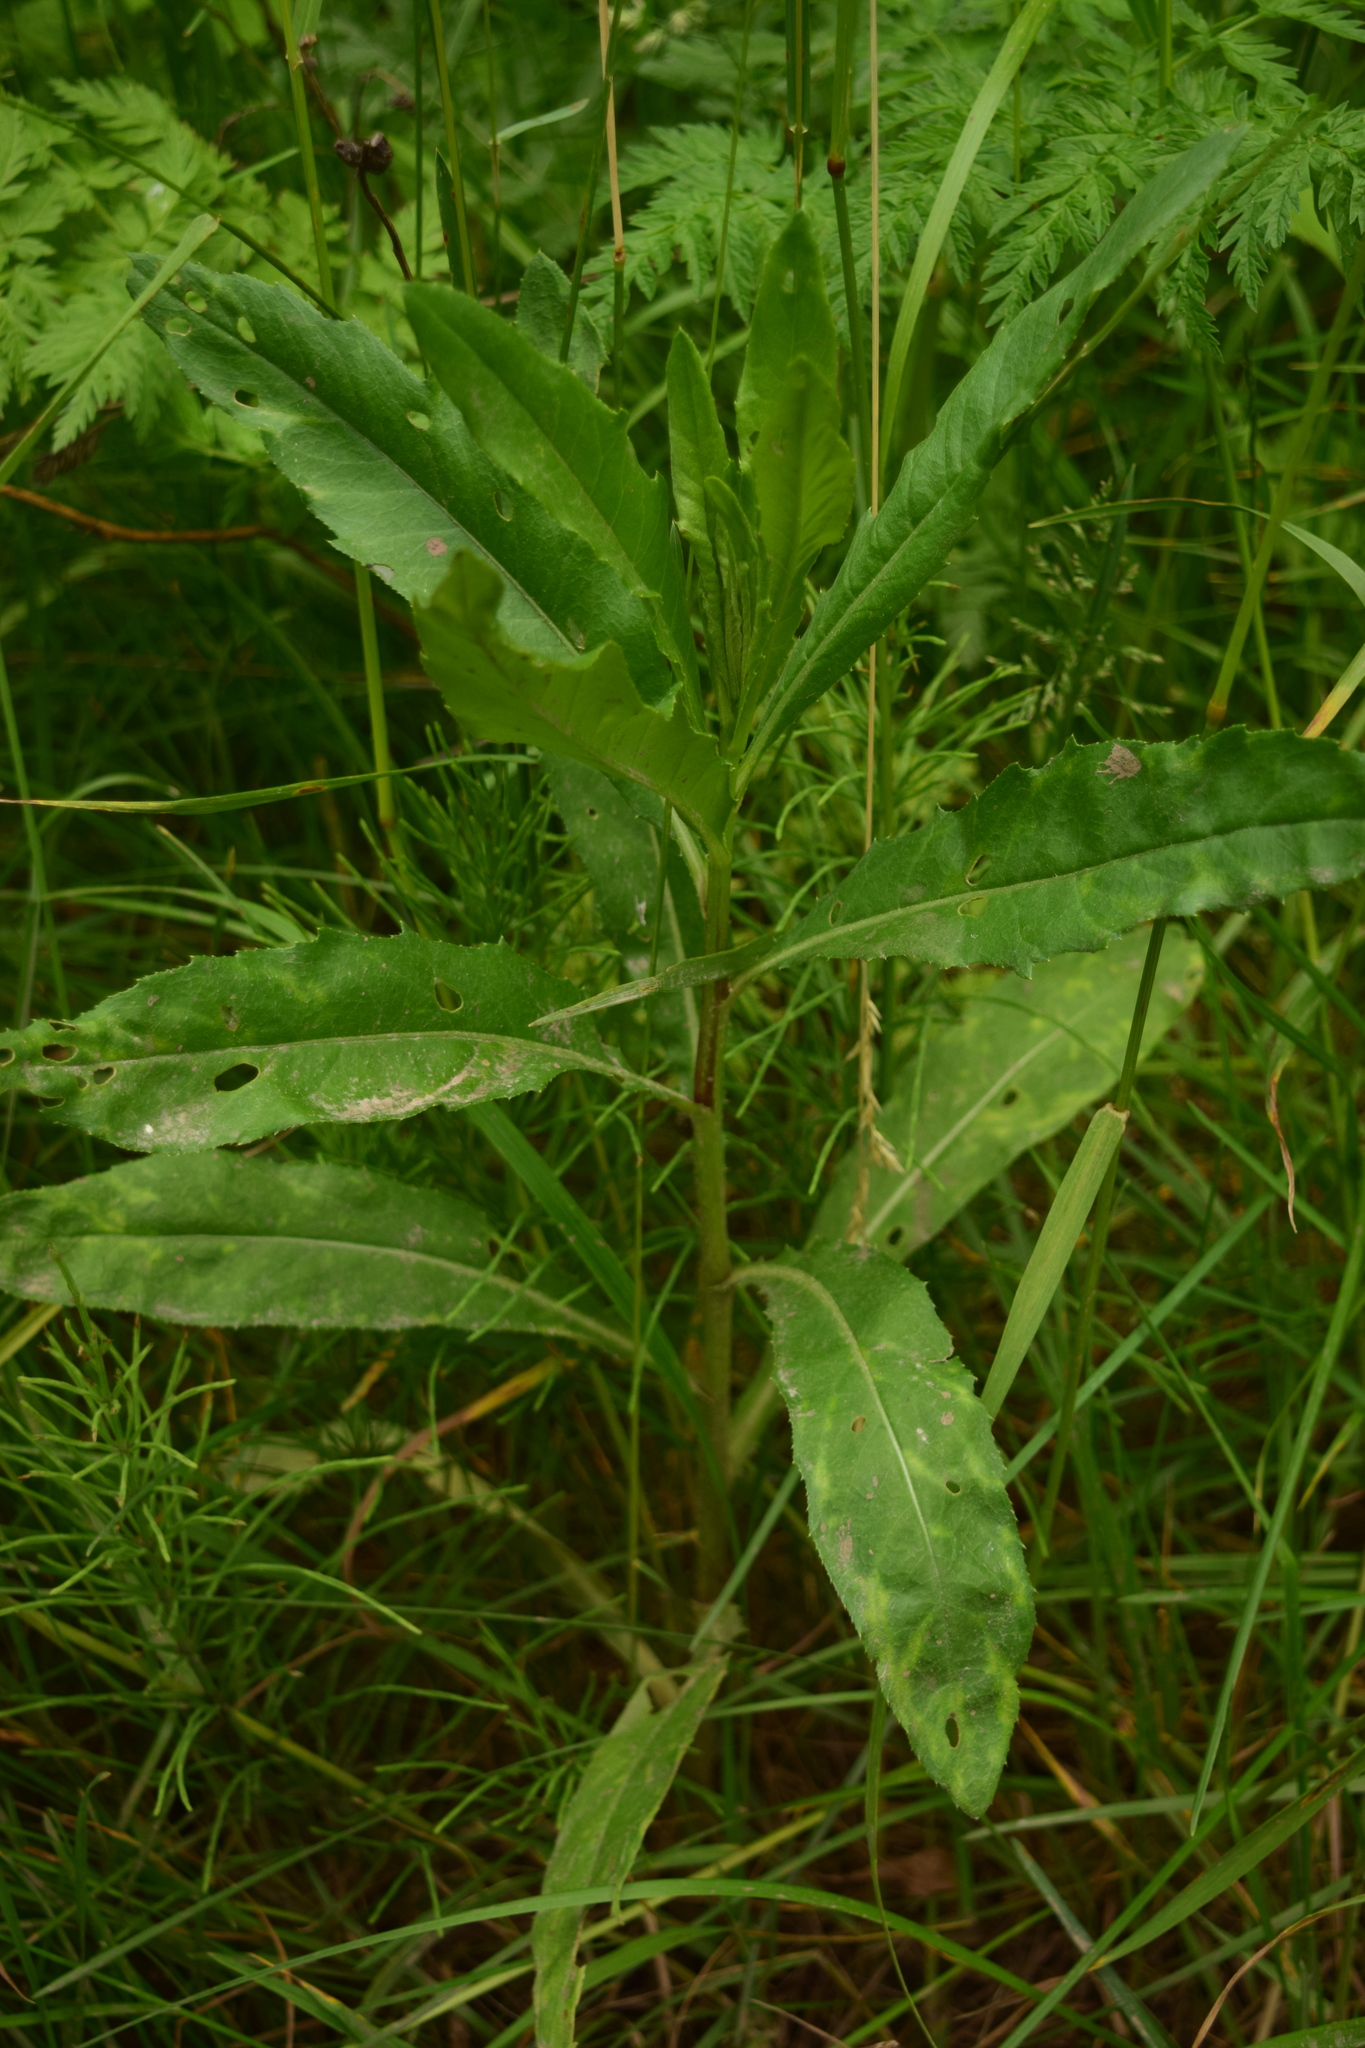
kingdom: Plantae
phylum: Tracheophyta
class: Magnoliopsida
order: Asterales
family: Asteraceae
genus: Cirsium
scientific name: Cirsium arvense
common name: Creeping thistle
